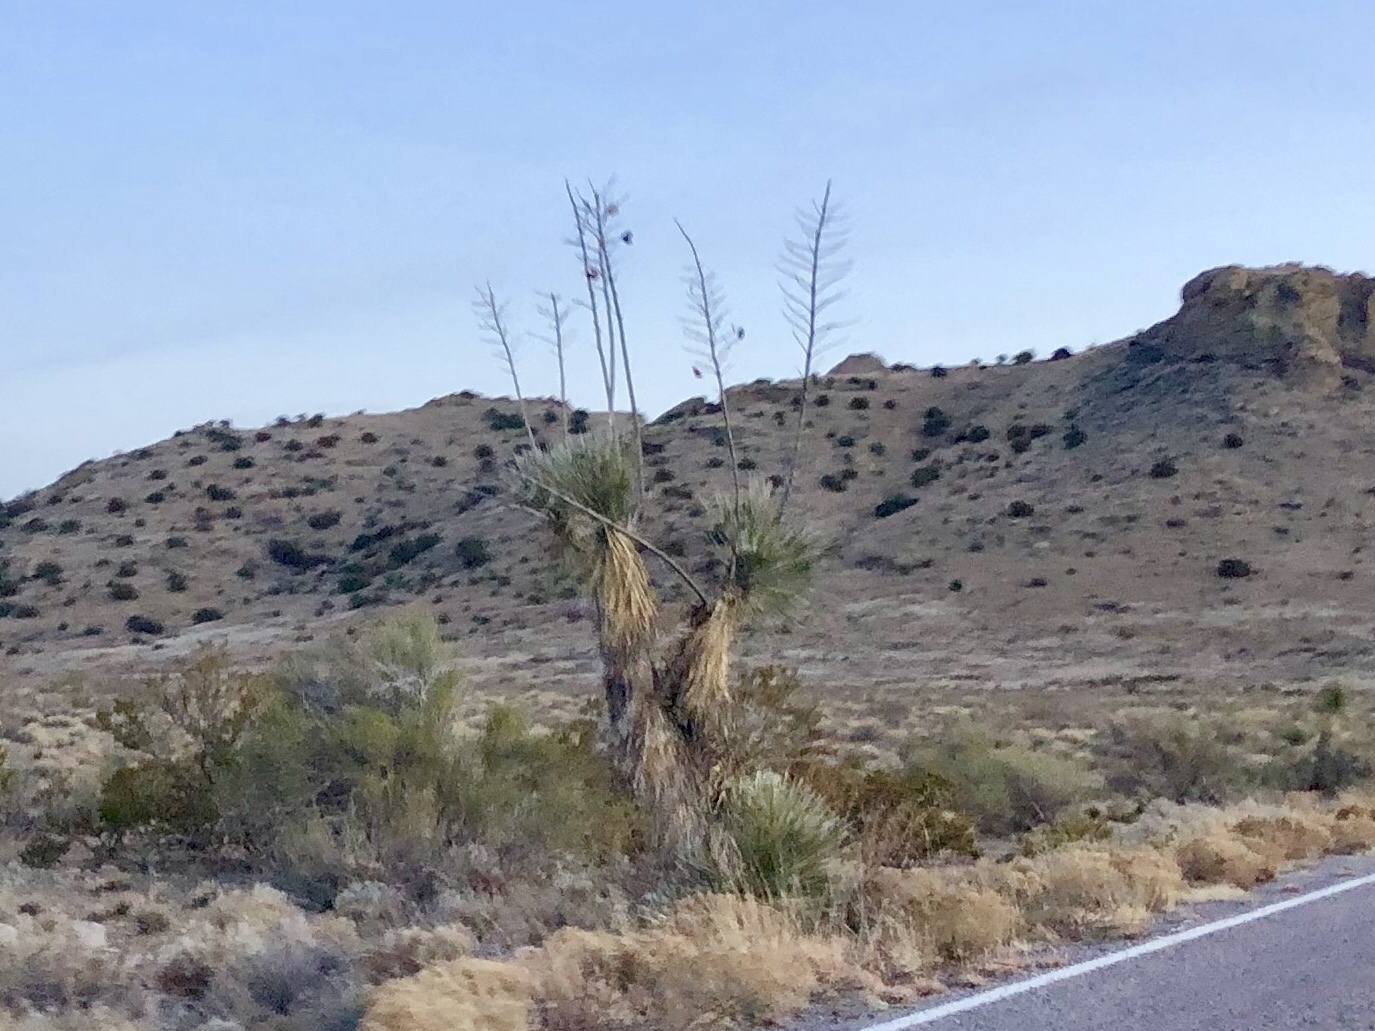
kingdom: Plantae
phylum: Tracheophyta
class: Liliopsida
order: Asparagales
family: Asparagaceae
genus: Yucca
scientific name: Yucca elata
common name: Palmella
